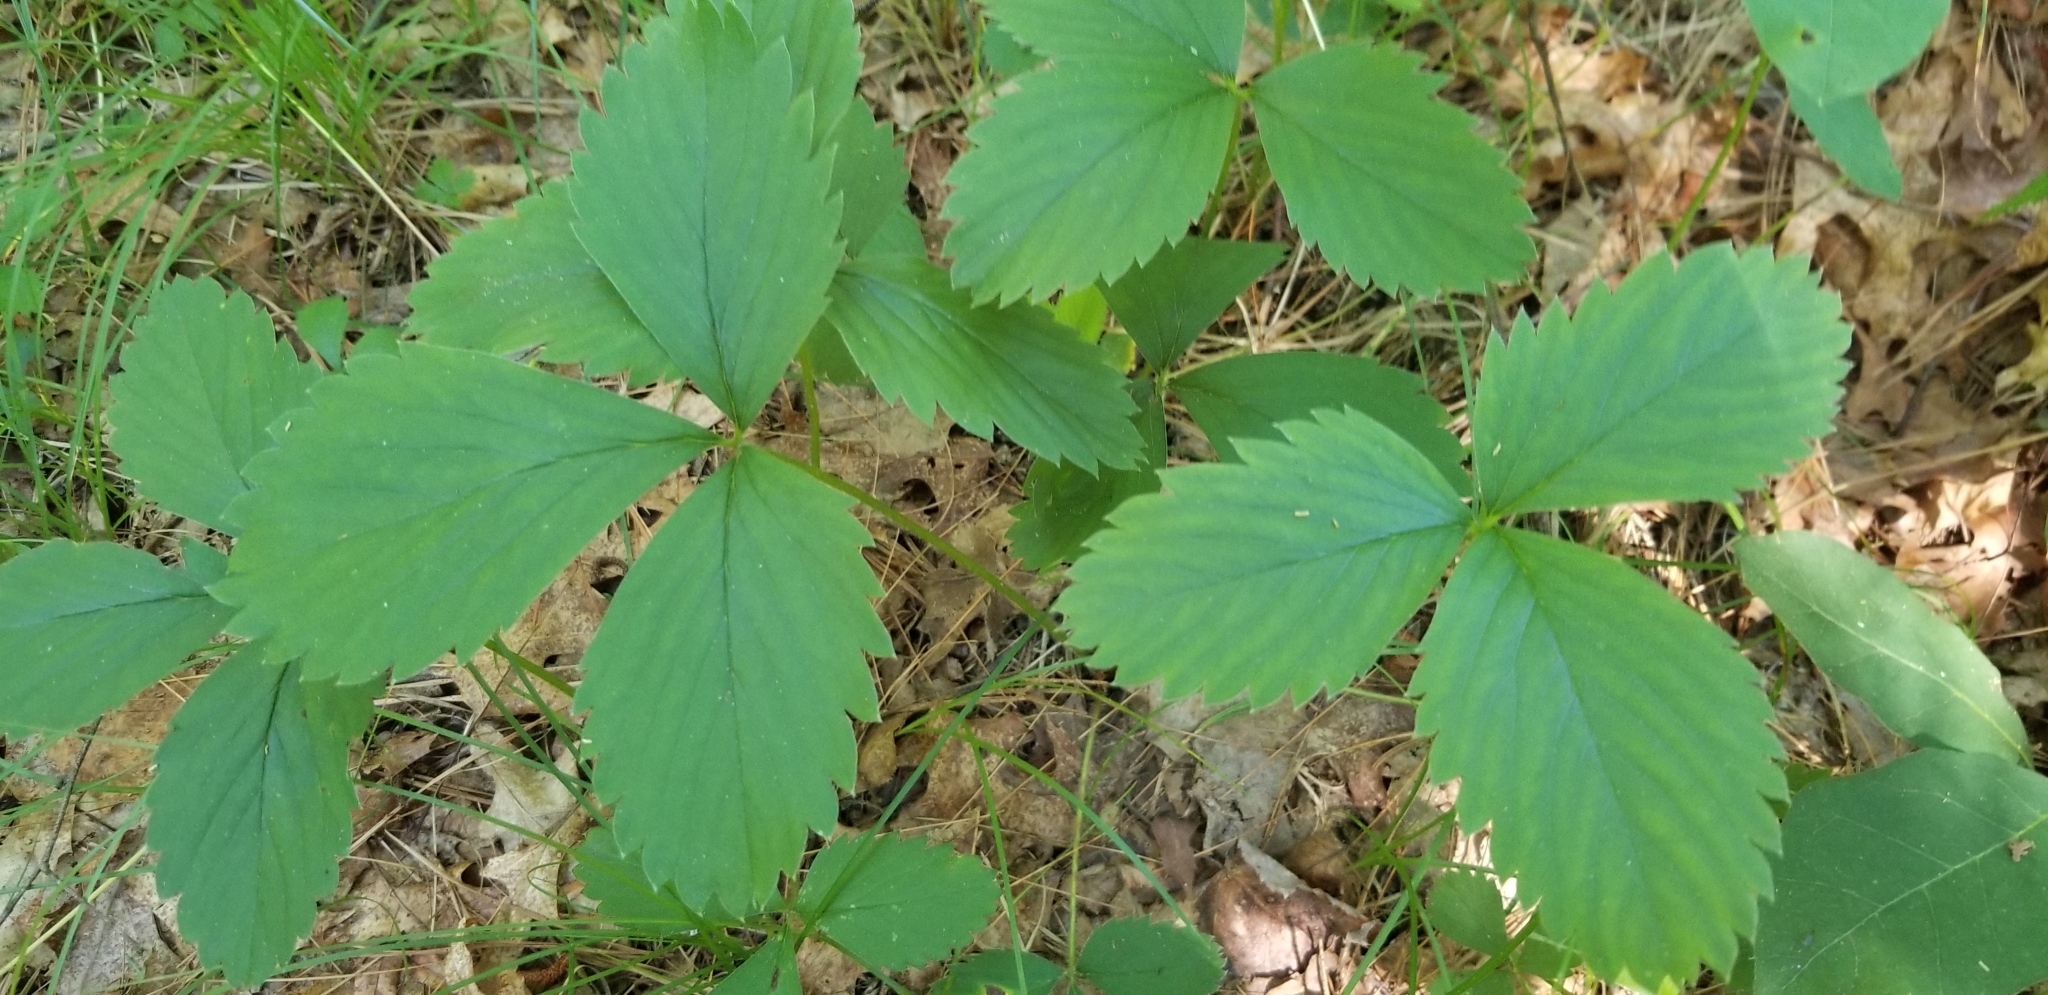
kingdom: Plantae
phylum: Tracheophyta
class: Magnoliopsida
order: Rosales
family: Rosaceae
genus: Fragaria
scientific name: Fragaria vesca
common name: Wild strawberry
